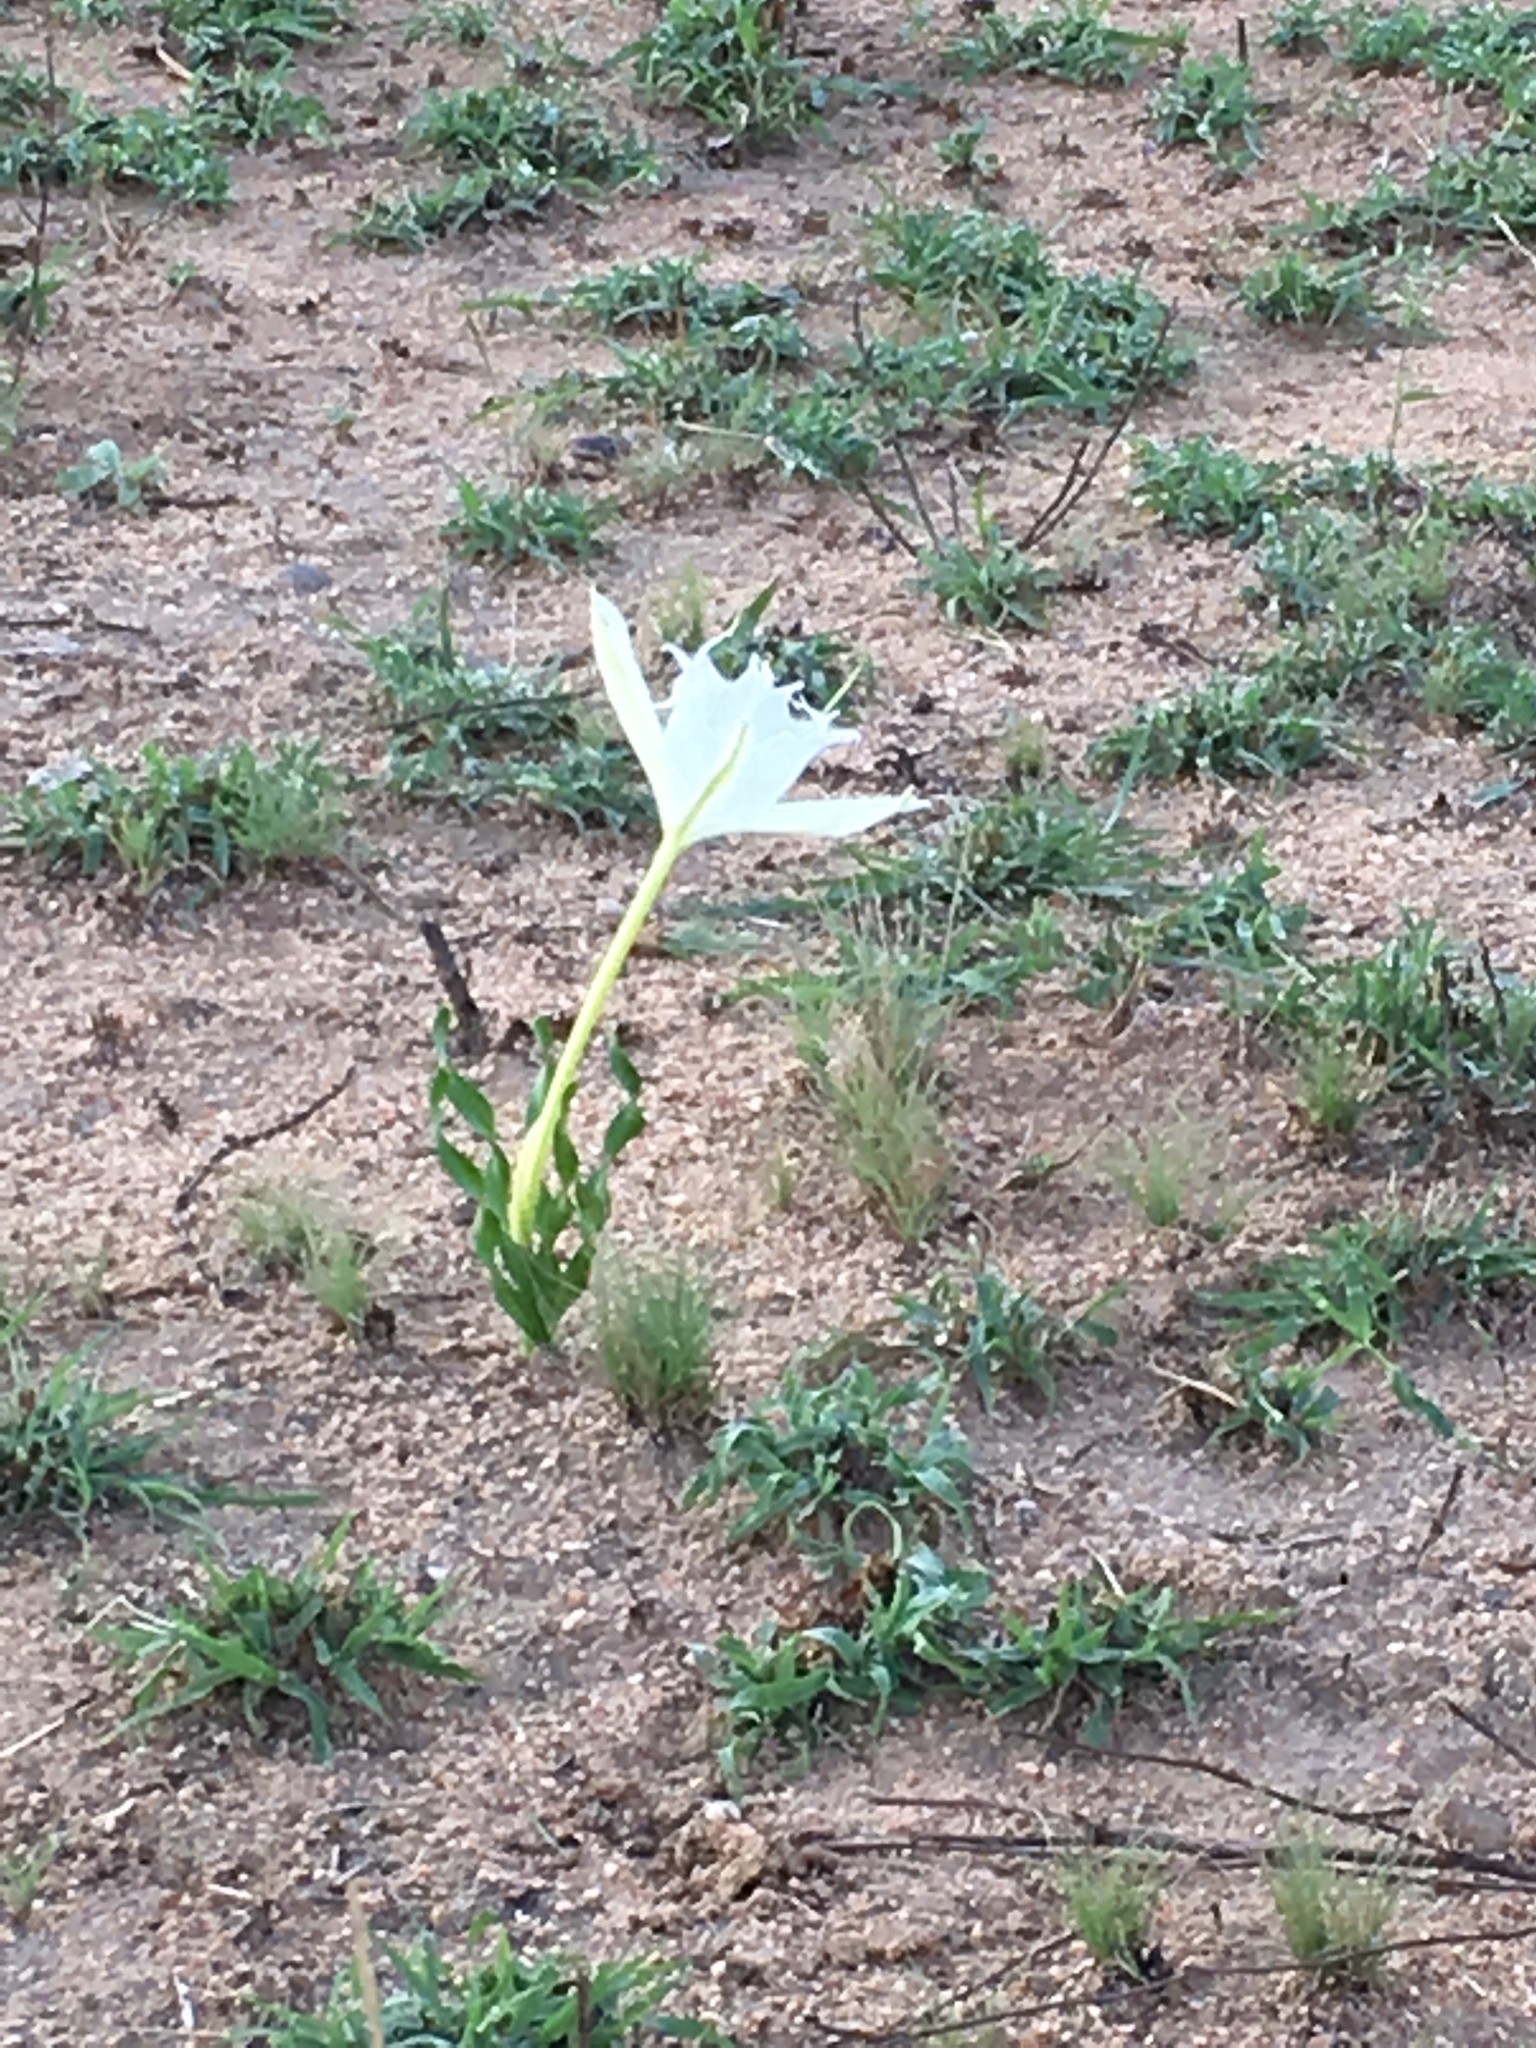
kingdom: Plantae
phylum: Tracheophyta
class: Liliopsida
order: Asparagales
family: Amaryllidaceae
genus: Pancratium
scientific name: Pancratium tenuifolium
